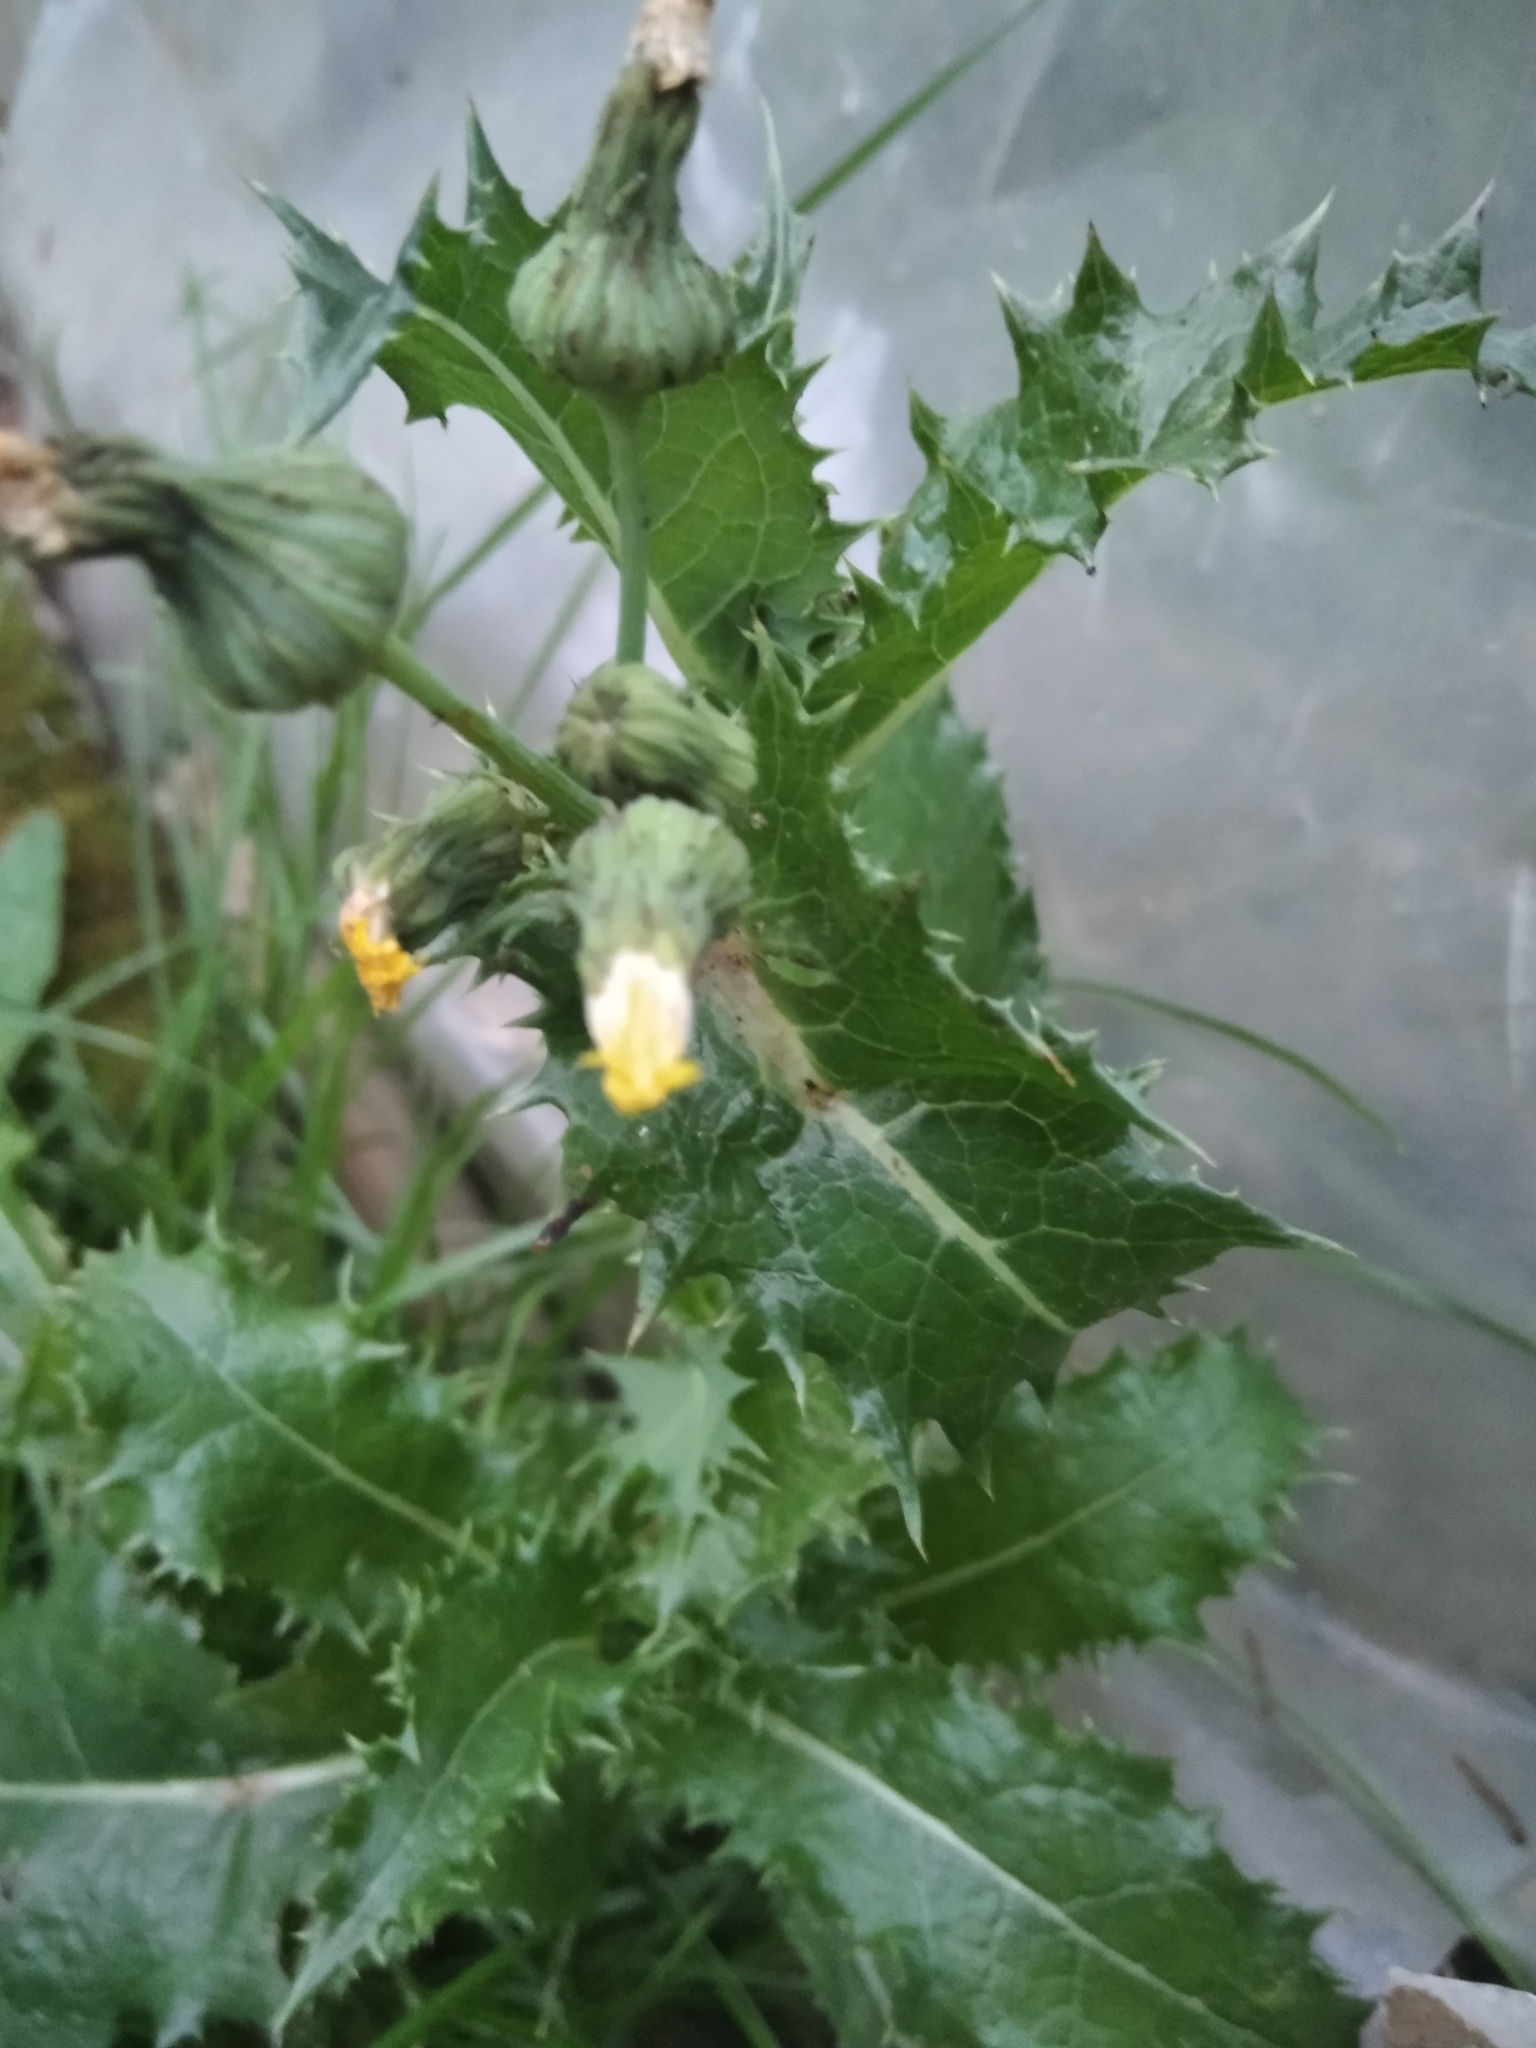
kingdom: Plantae
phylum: Tracheophyta
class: Magnoliopsida
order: Asterales
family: Asteraceae
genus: Sonchus
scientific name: Sonchus asper
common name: Prickly sow-thistle
